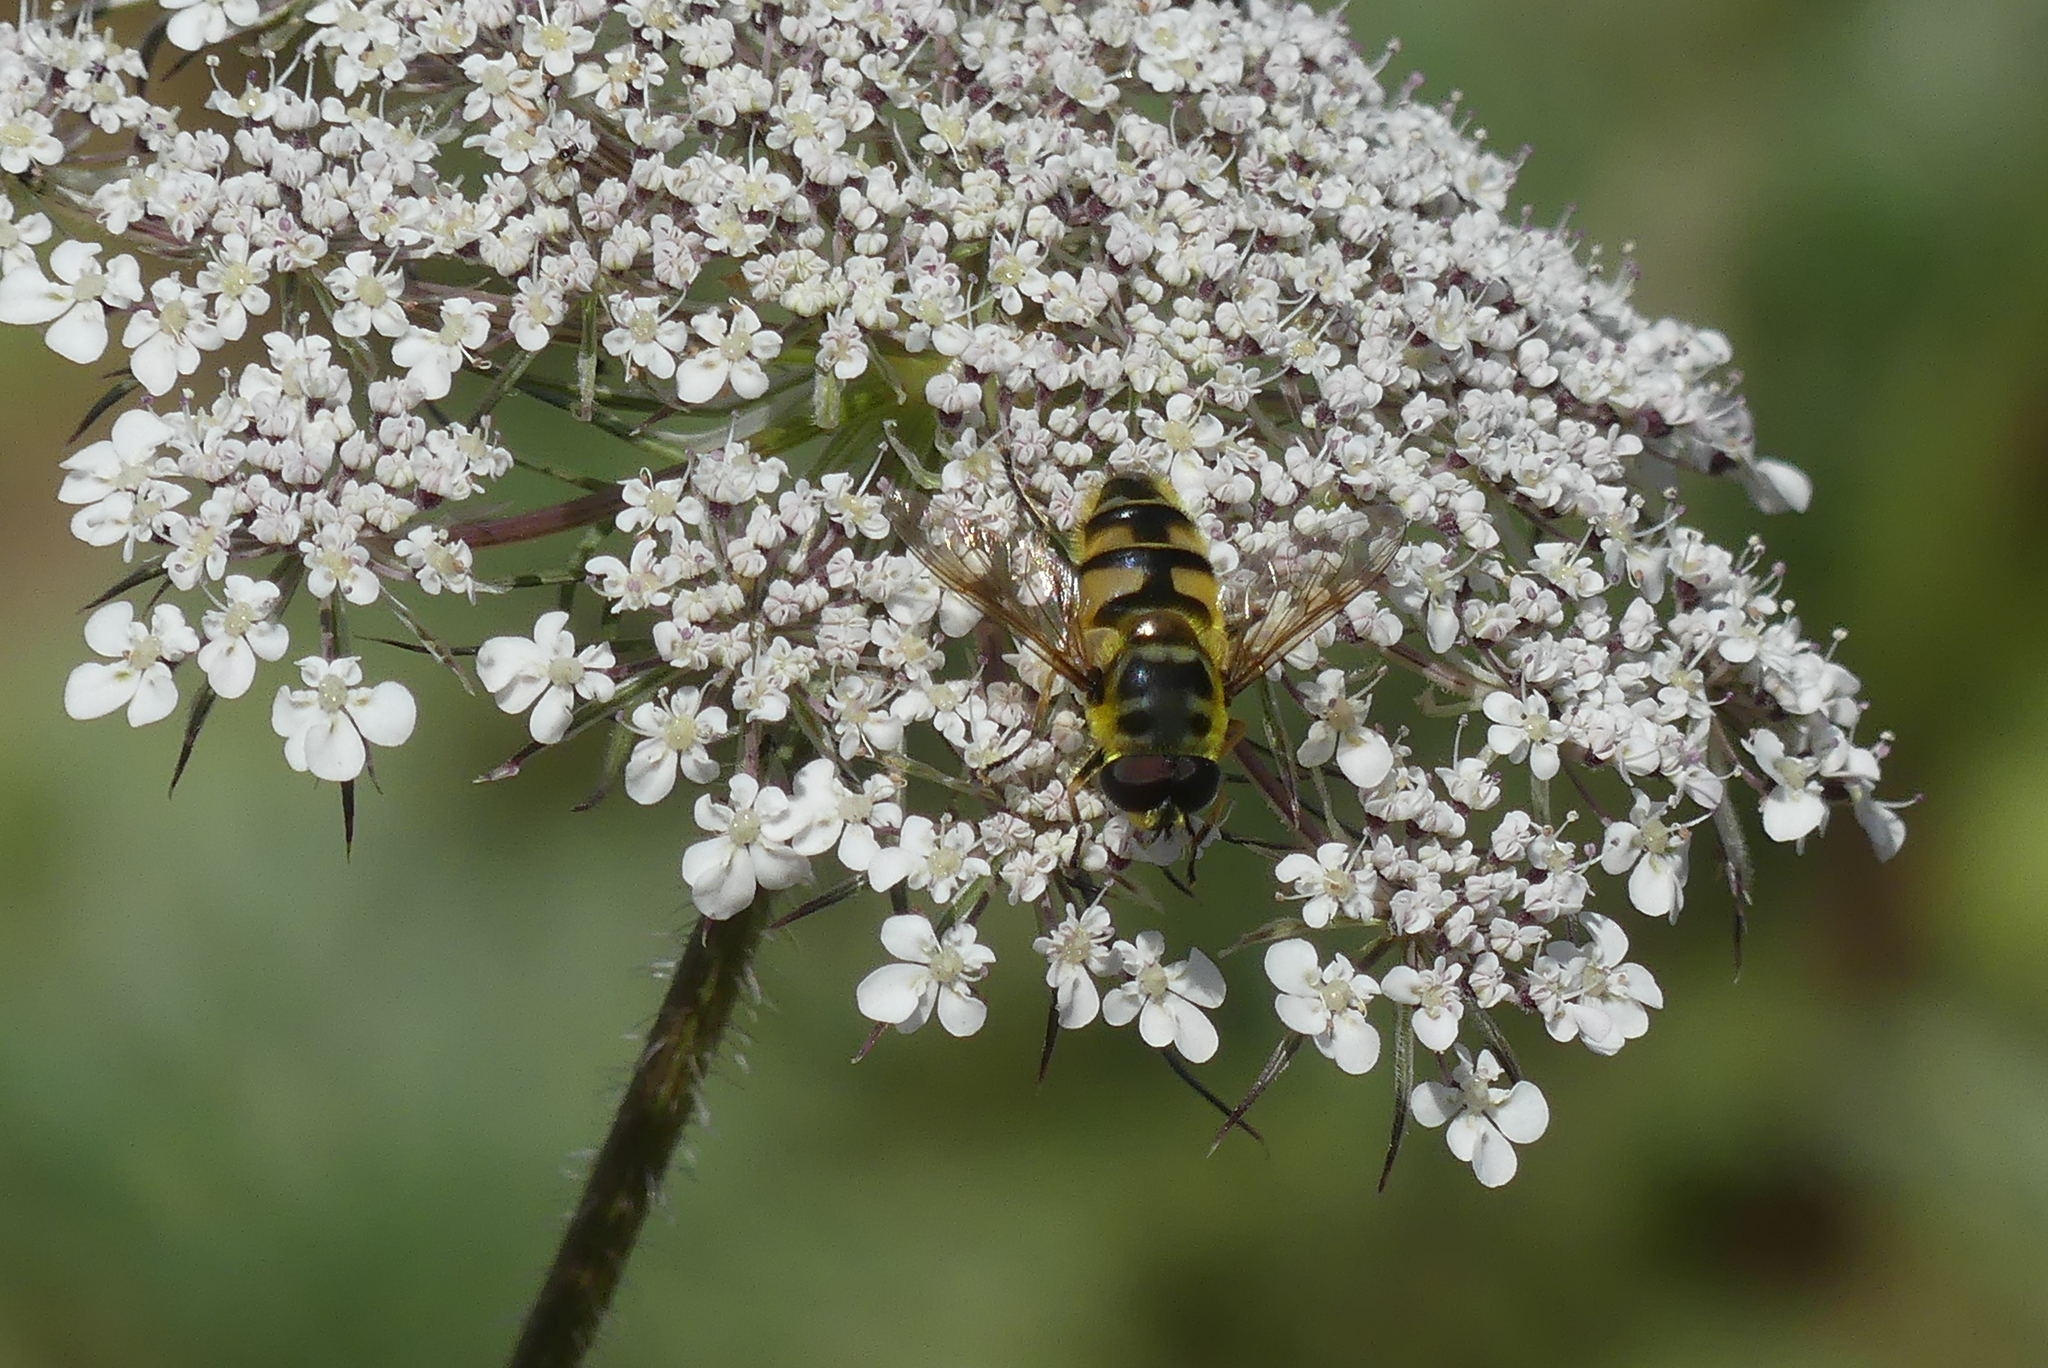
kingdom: Animalia
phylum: Arthropoda
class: Insecta
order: Diptera
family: Syrphidae
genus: Myathropa
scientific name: Myathropa florea
